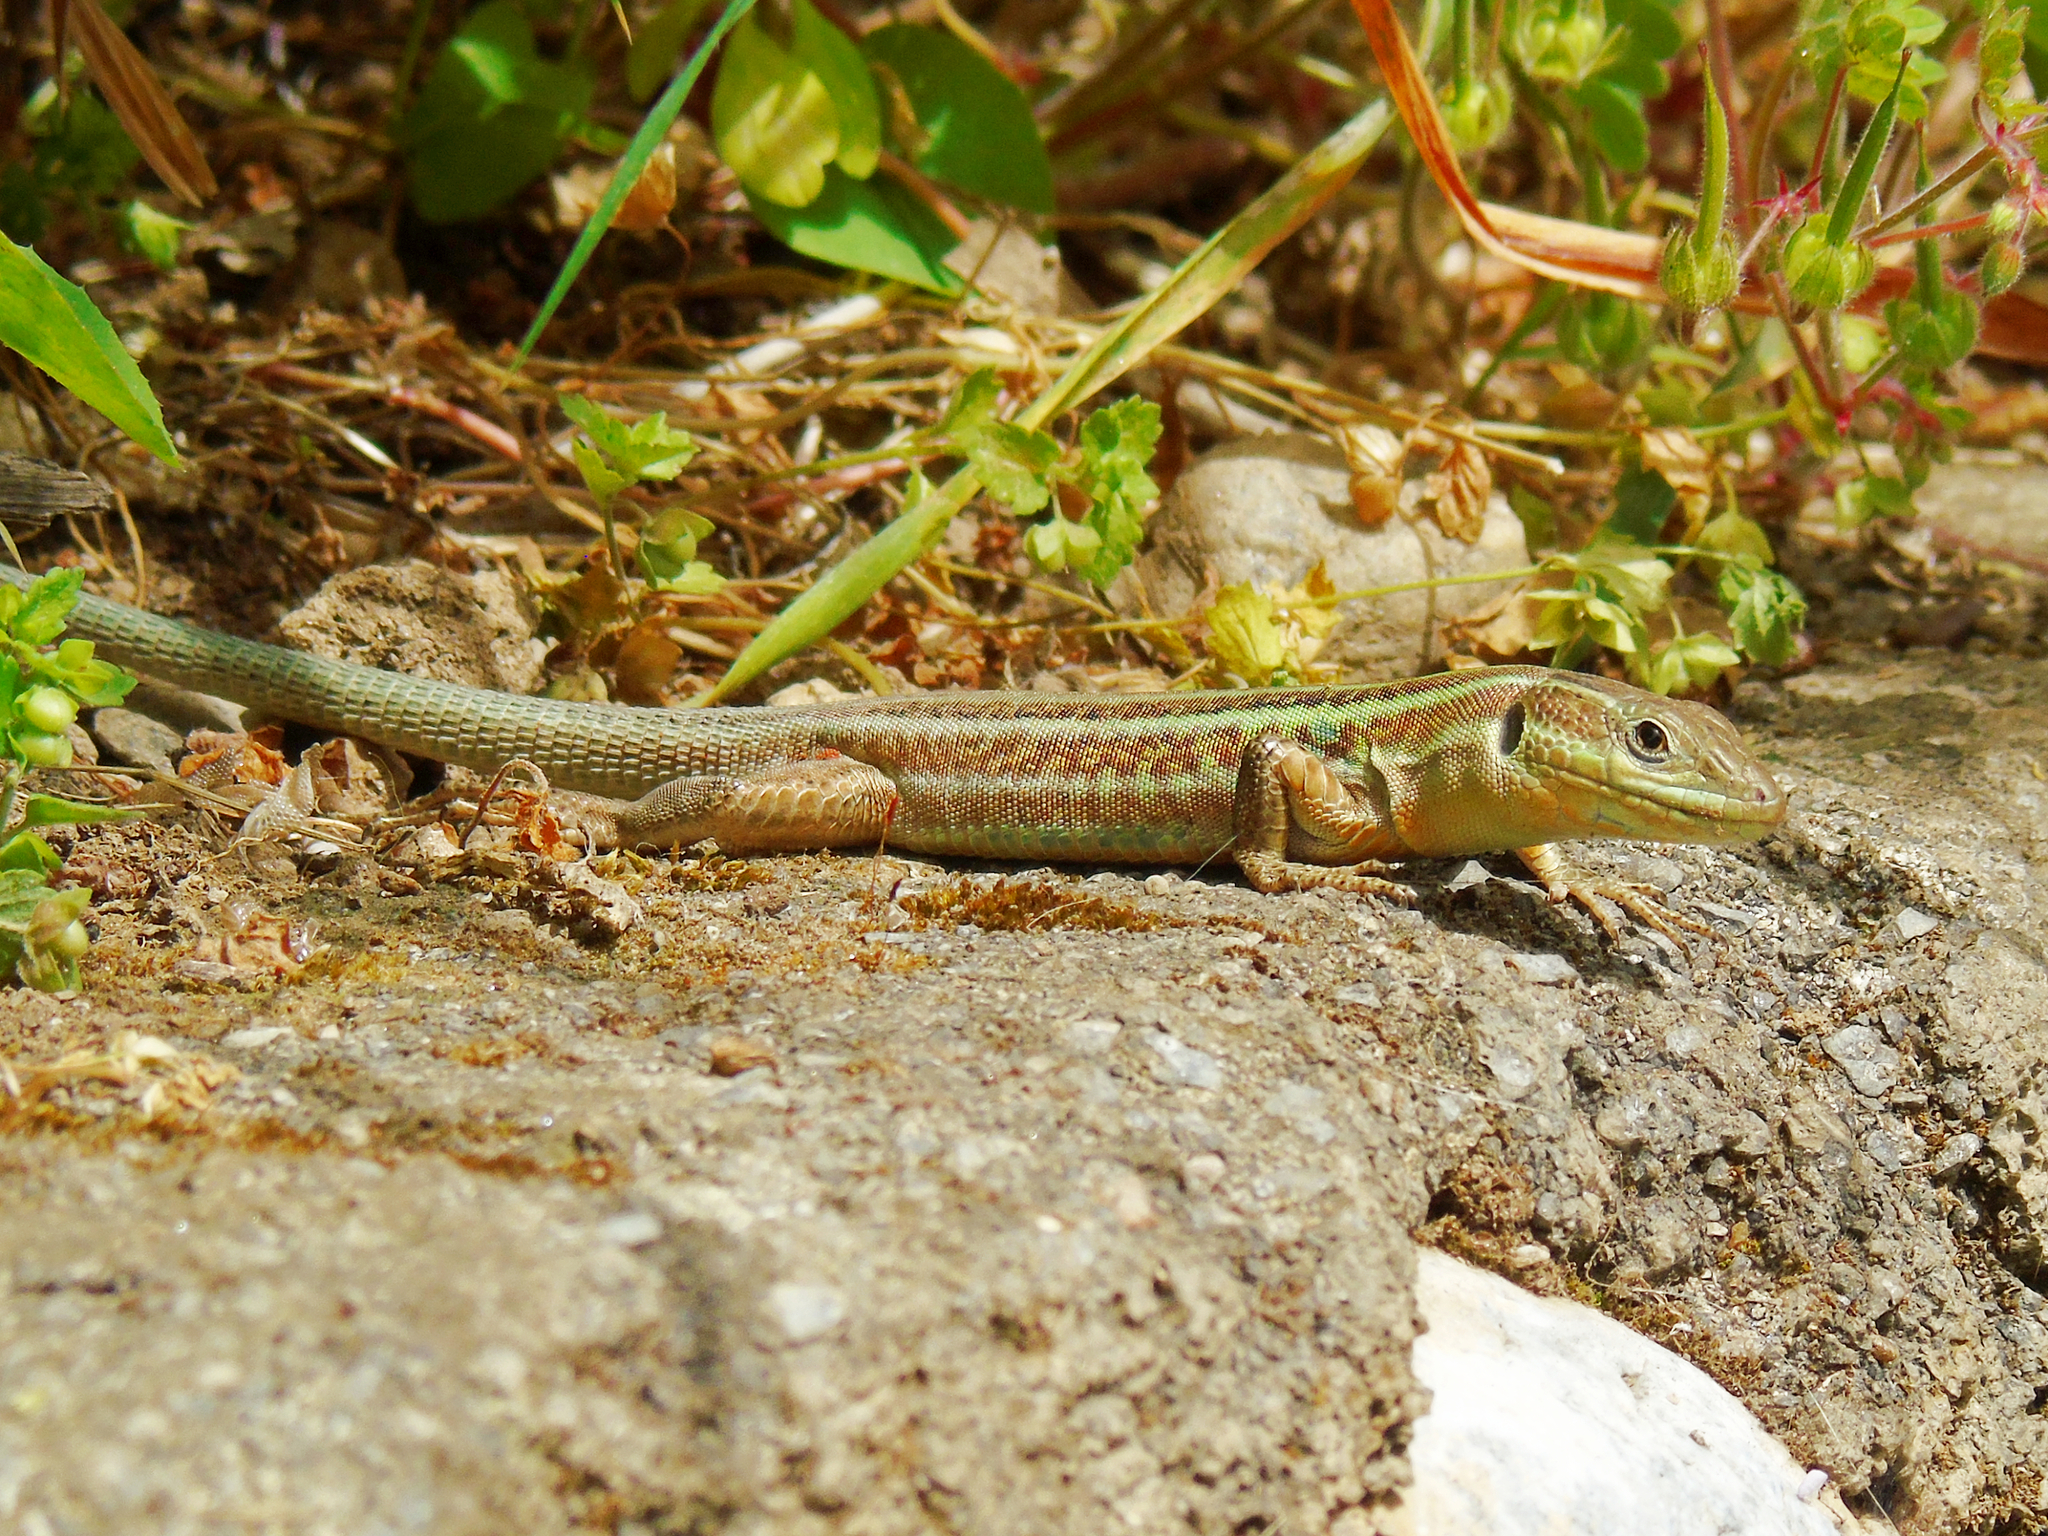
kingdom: Animalia
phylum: Chordata
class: Squamata
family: Lacertidae
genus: Podarcis
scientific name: Podarcis peloponnesiacus
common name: Peloponnese wall lizard
